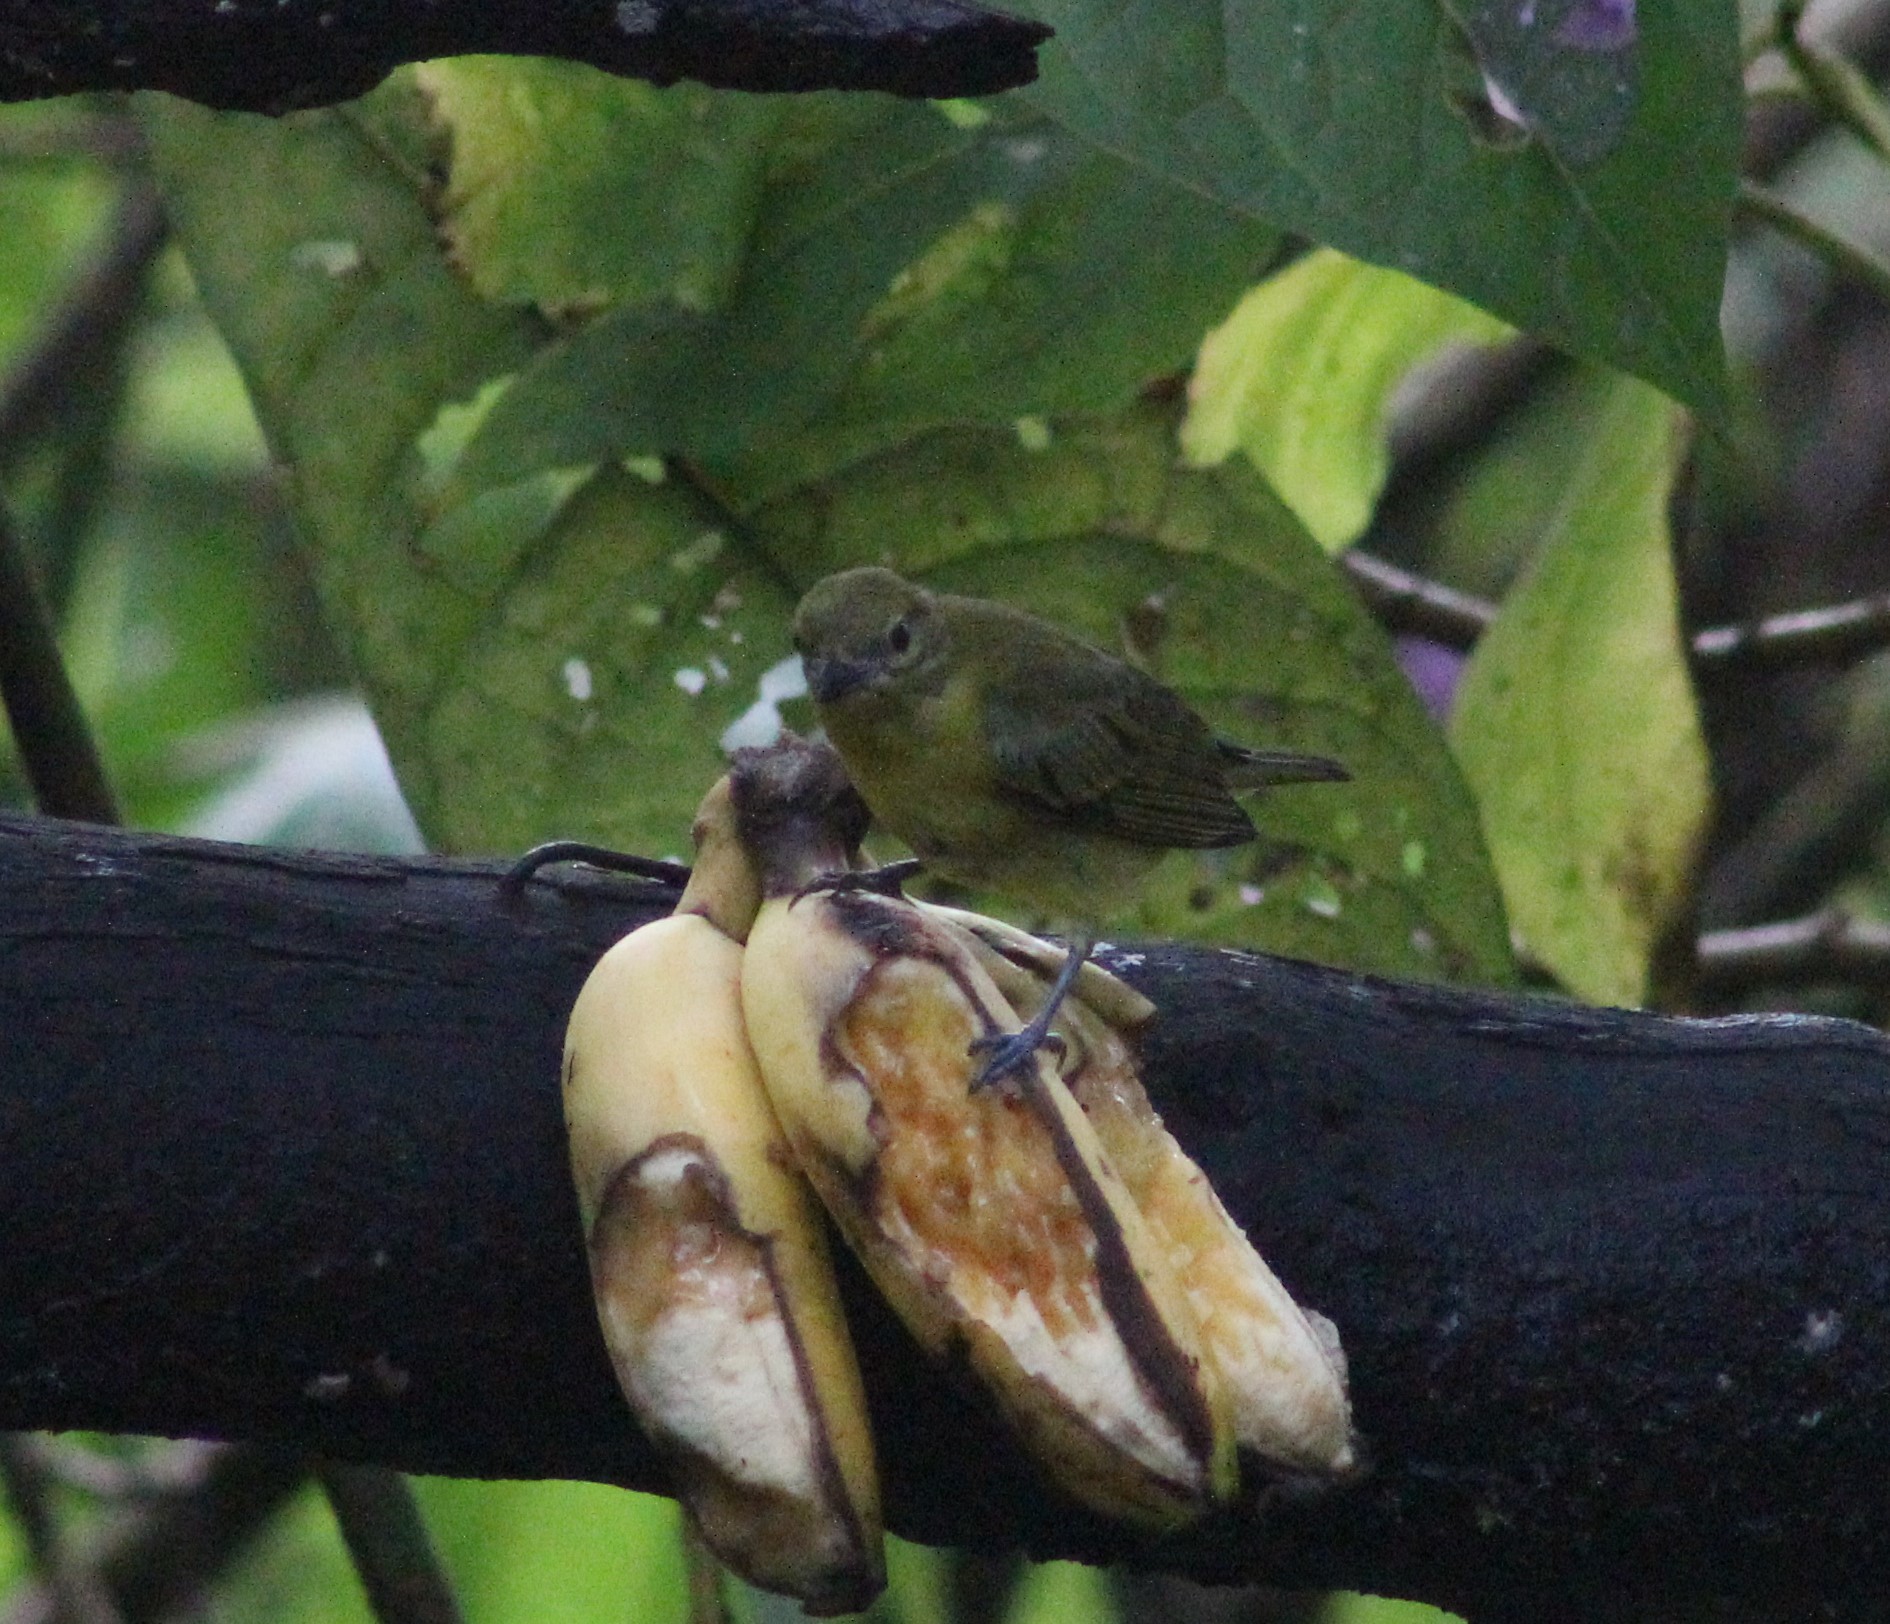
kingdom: Animalia
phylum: Chordata
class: Aves
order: Passeriformes
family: Fringillidae
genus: Euphonia
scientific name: Euphonia laniirostris
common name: Thick-billed euphonia
